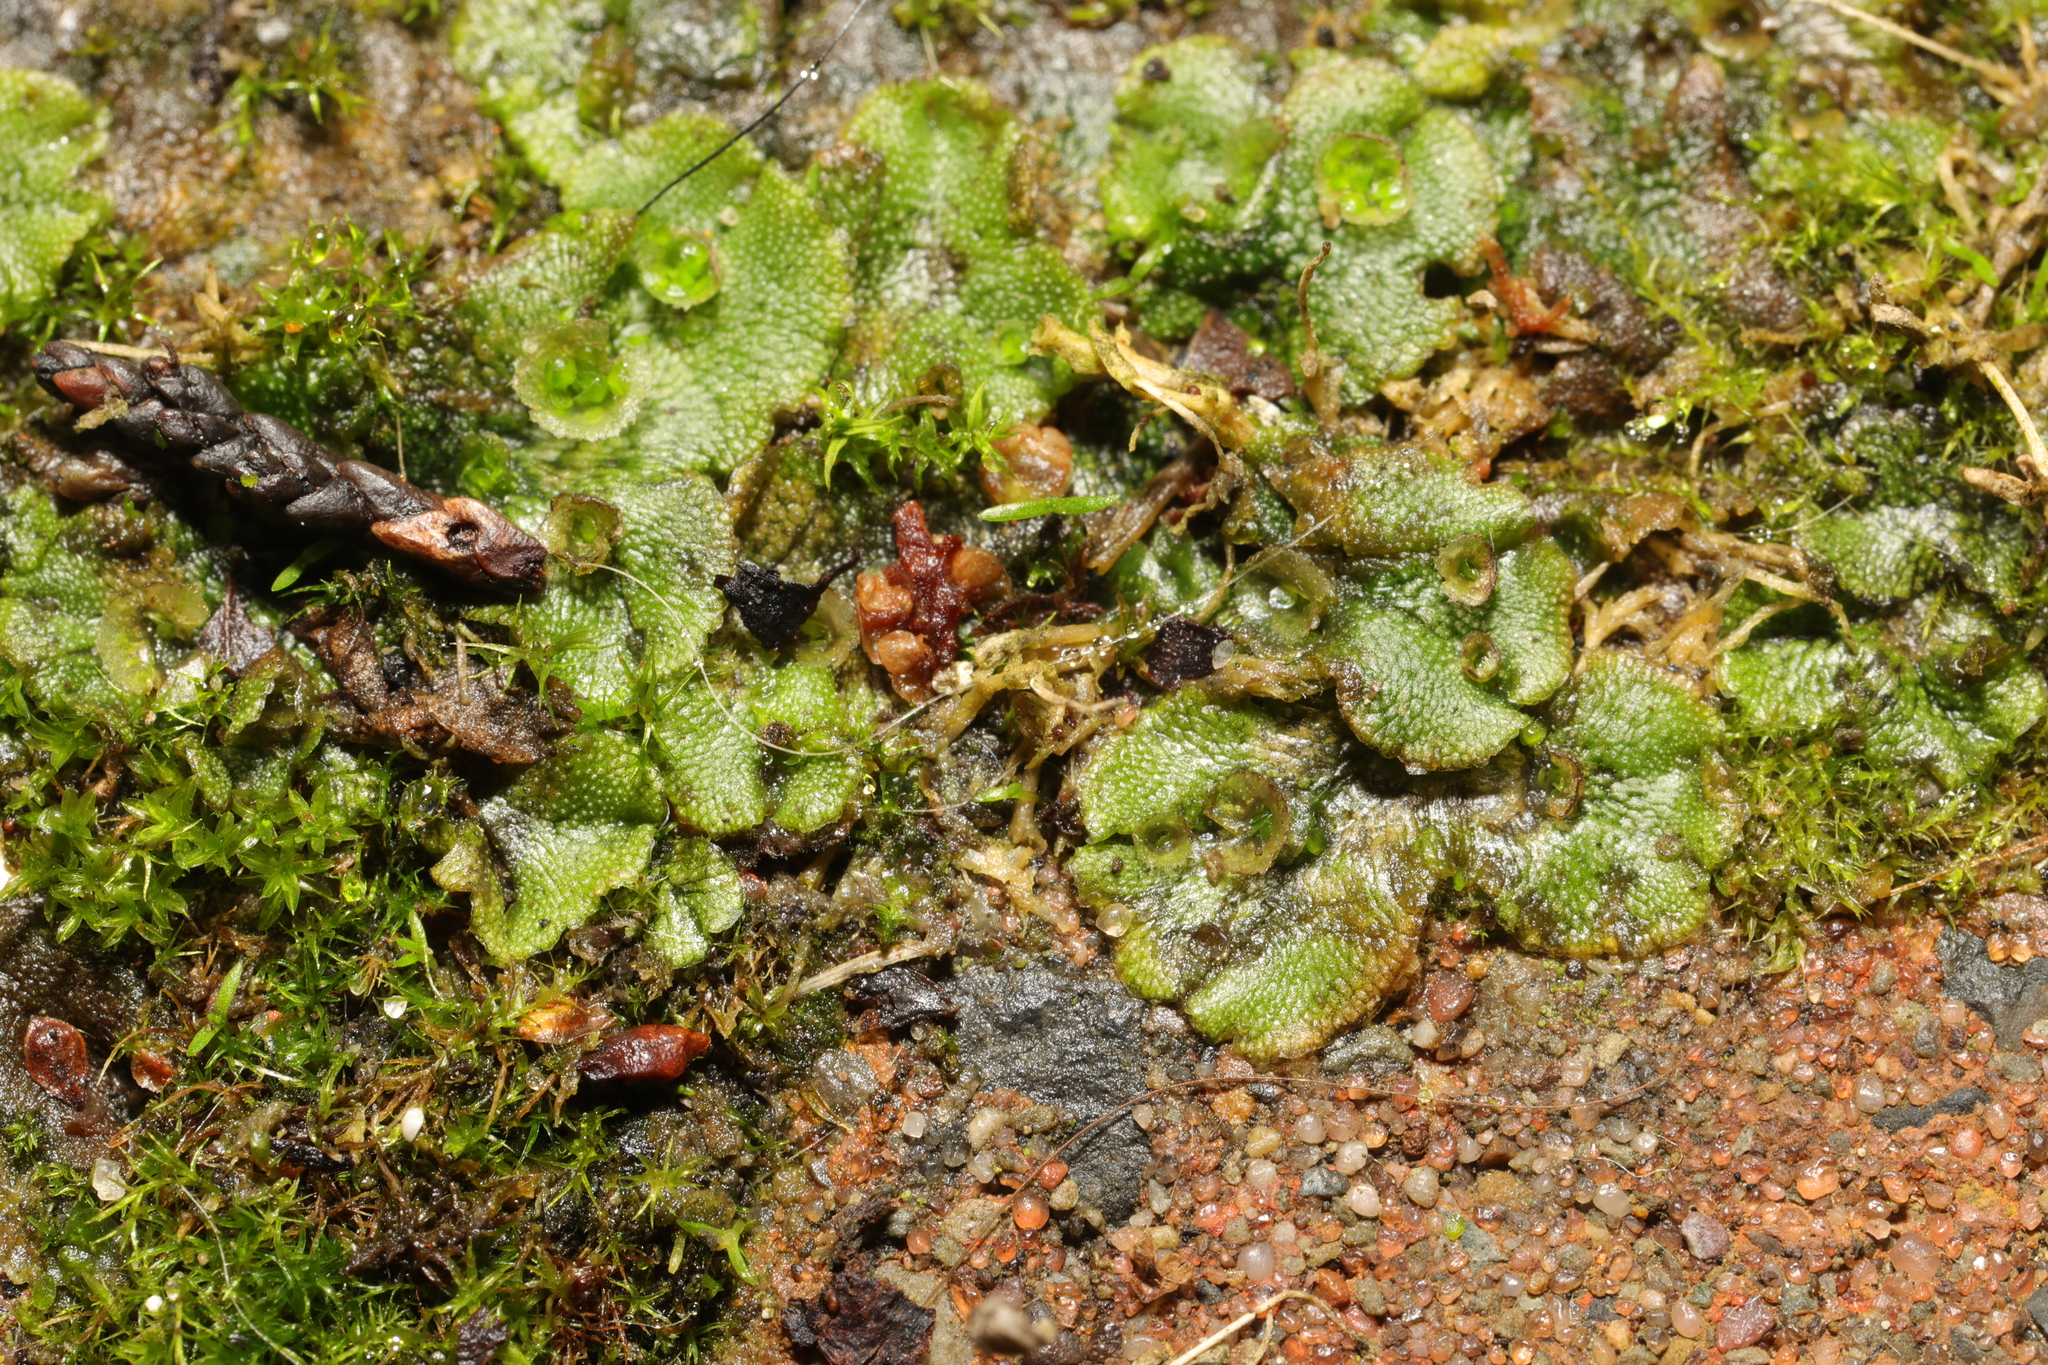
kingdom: Plantae
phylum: Marchantiophyta
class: Marchantiopsida
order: Marchantiales
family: Marchantiaceae
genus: Marchantia
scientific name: Marchantia polymorpha
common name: Common liverwort
